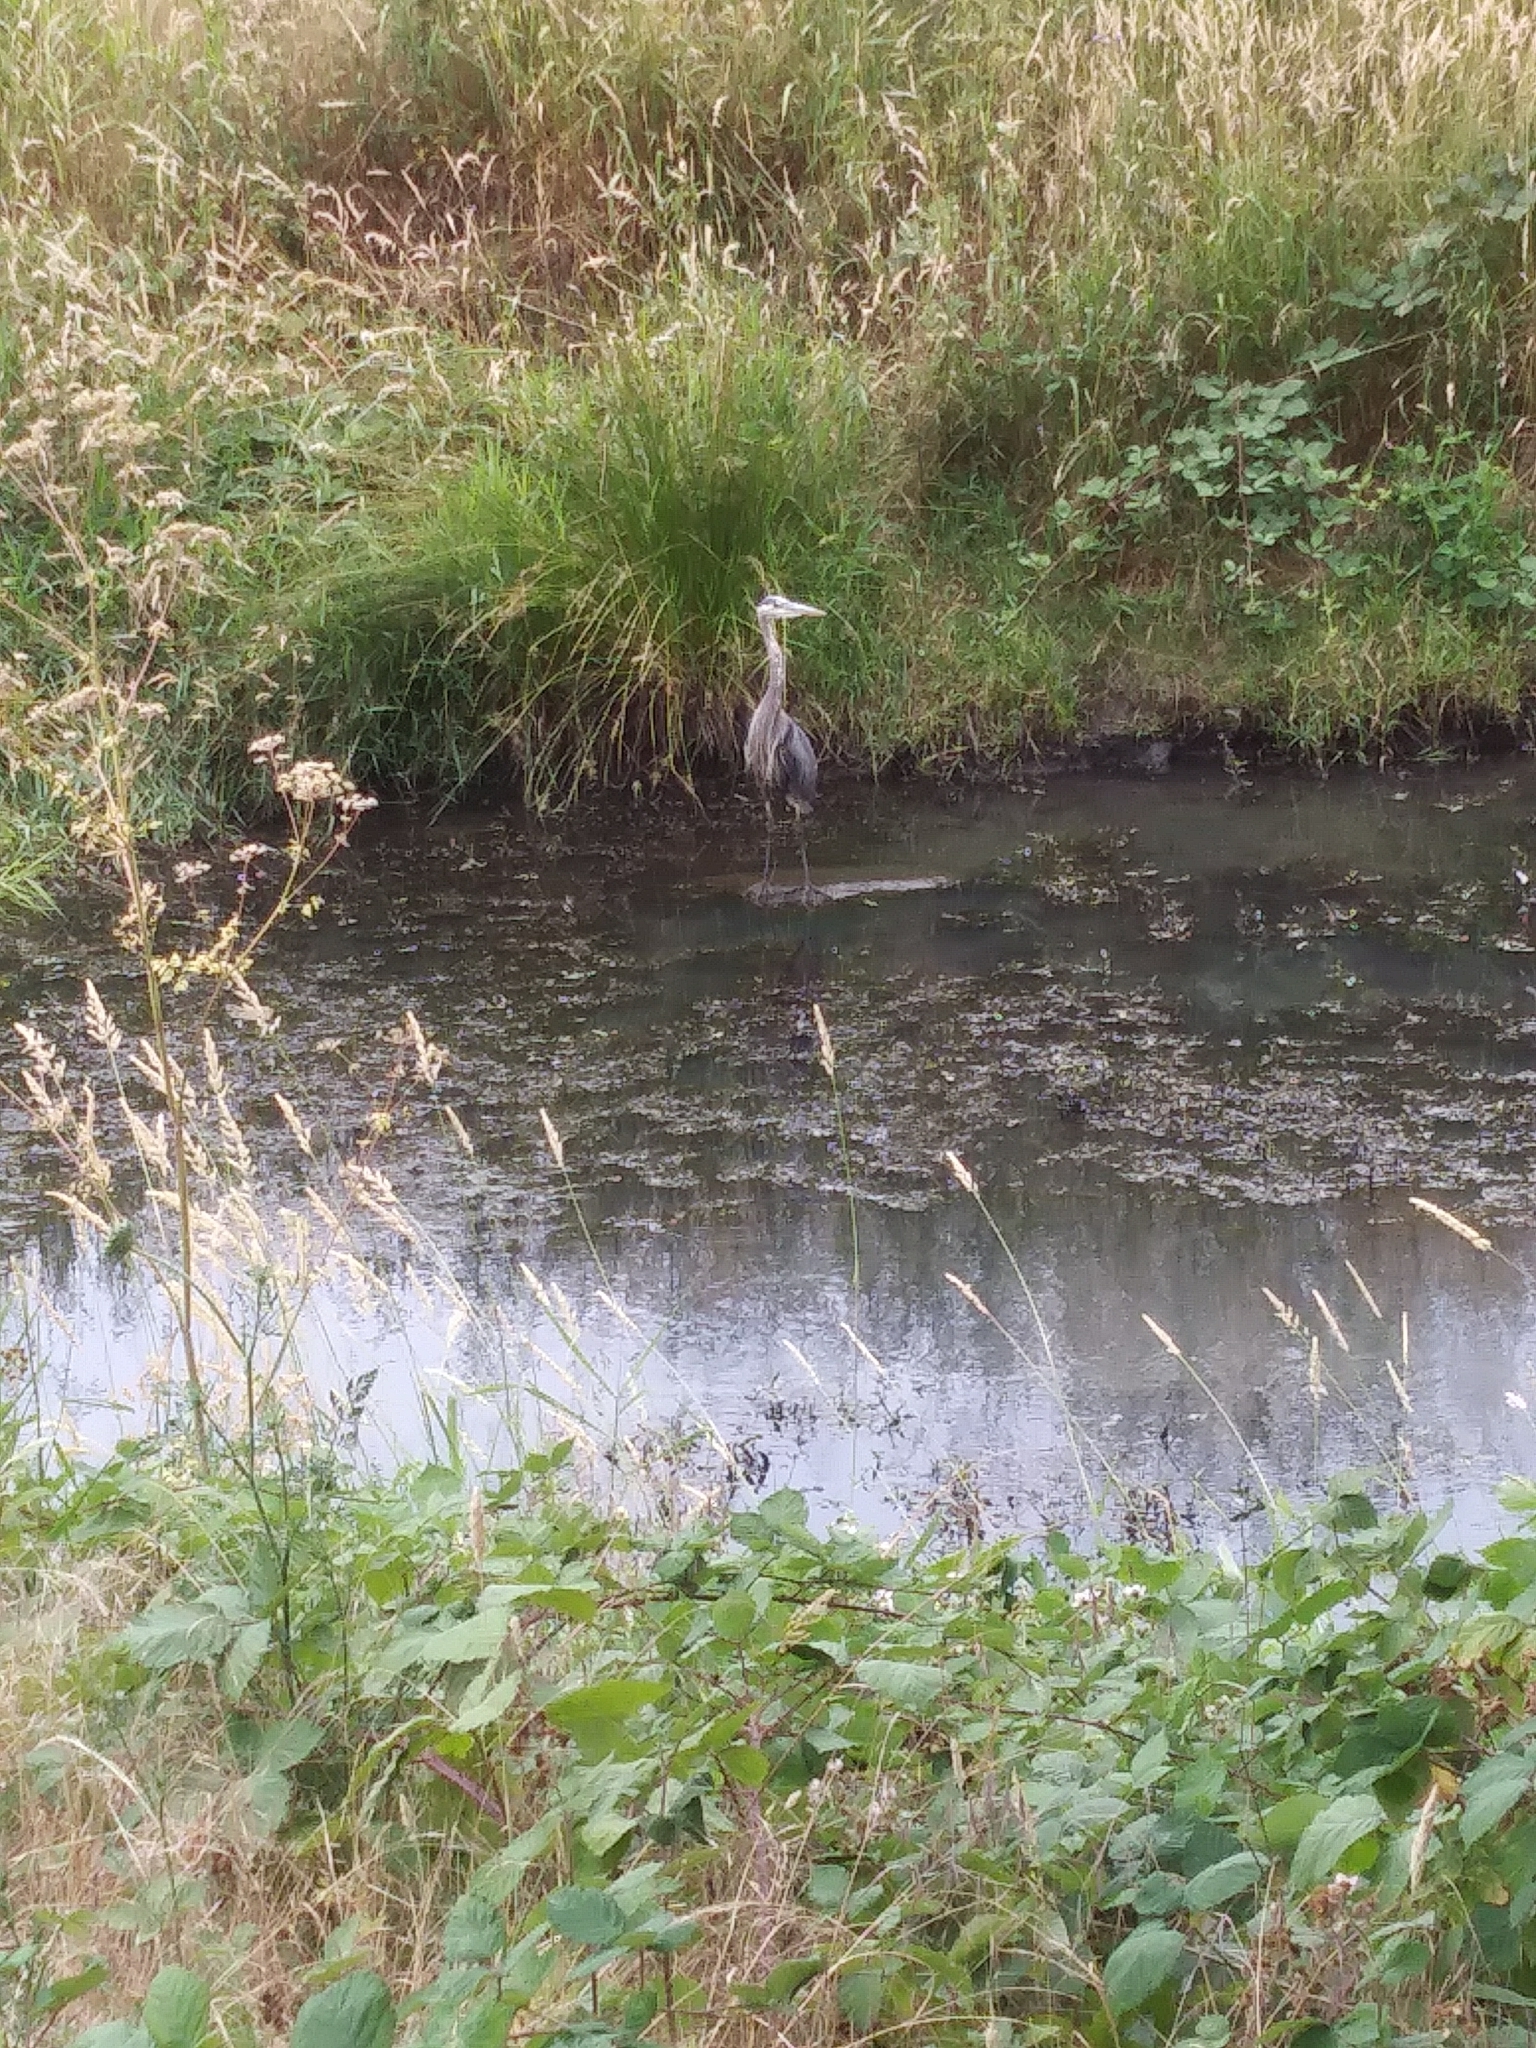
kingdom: Animalia
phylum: Chordata
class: Aves
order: Pelecaniformes
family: Ardeidae
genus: Ardea
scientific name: Ardea herodias
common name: Great blue heron
